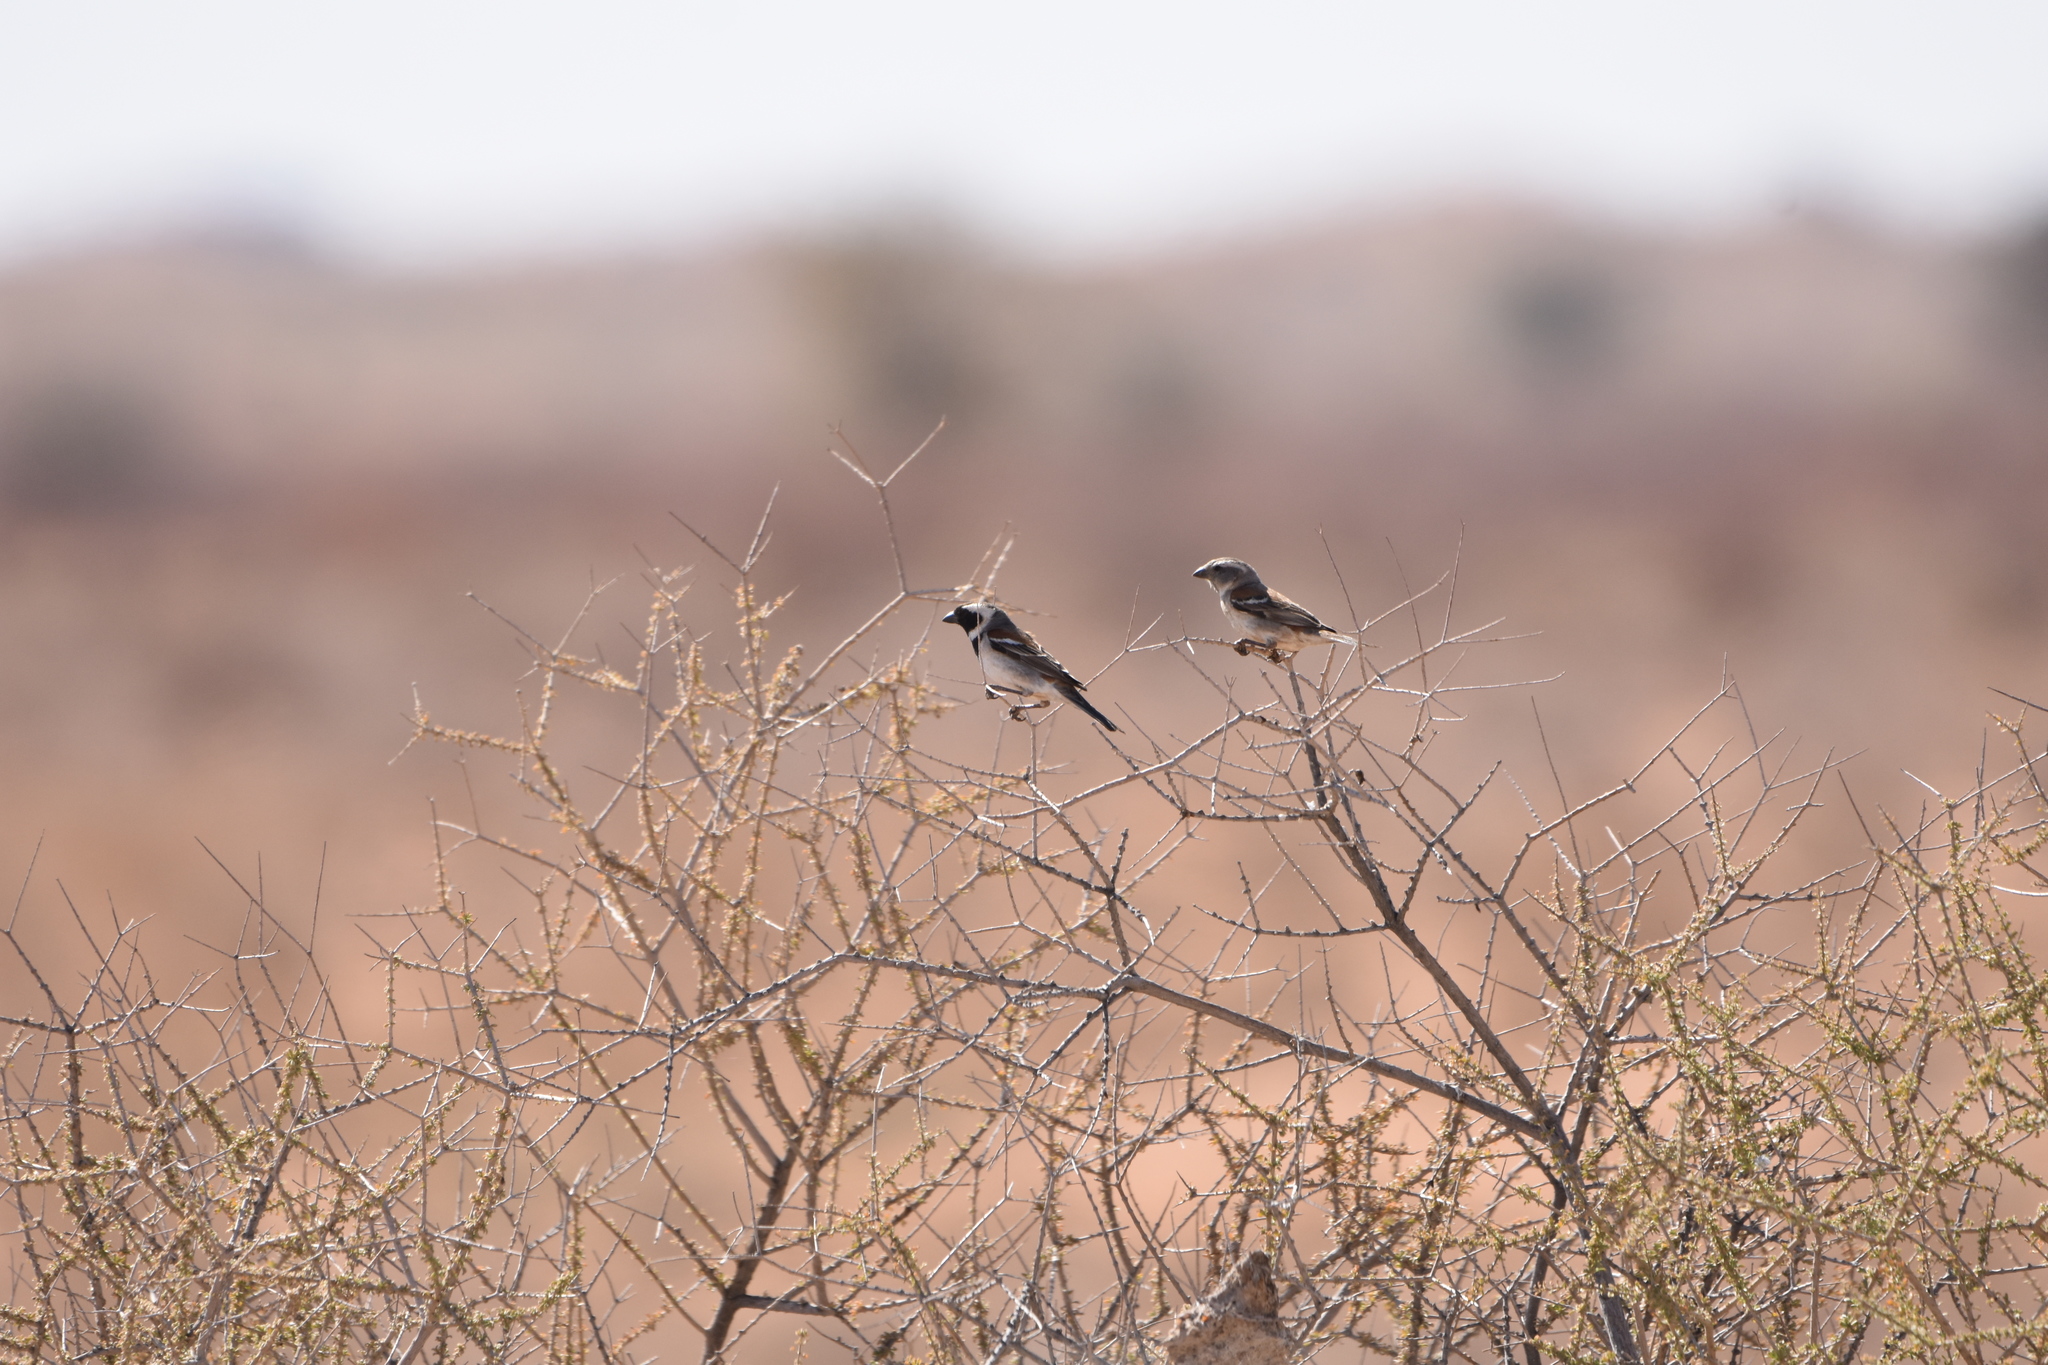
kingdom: Animalia
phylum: Chordata
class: Aves
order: Passeriformes
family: Passeridae
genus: Passer
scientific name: Passer melanurus
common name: Cape sparrow
